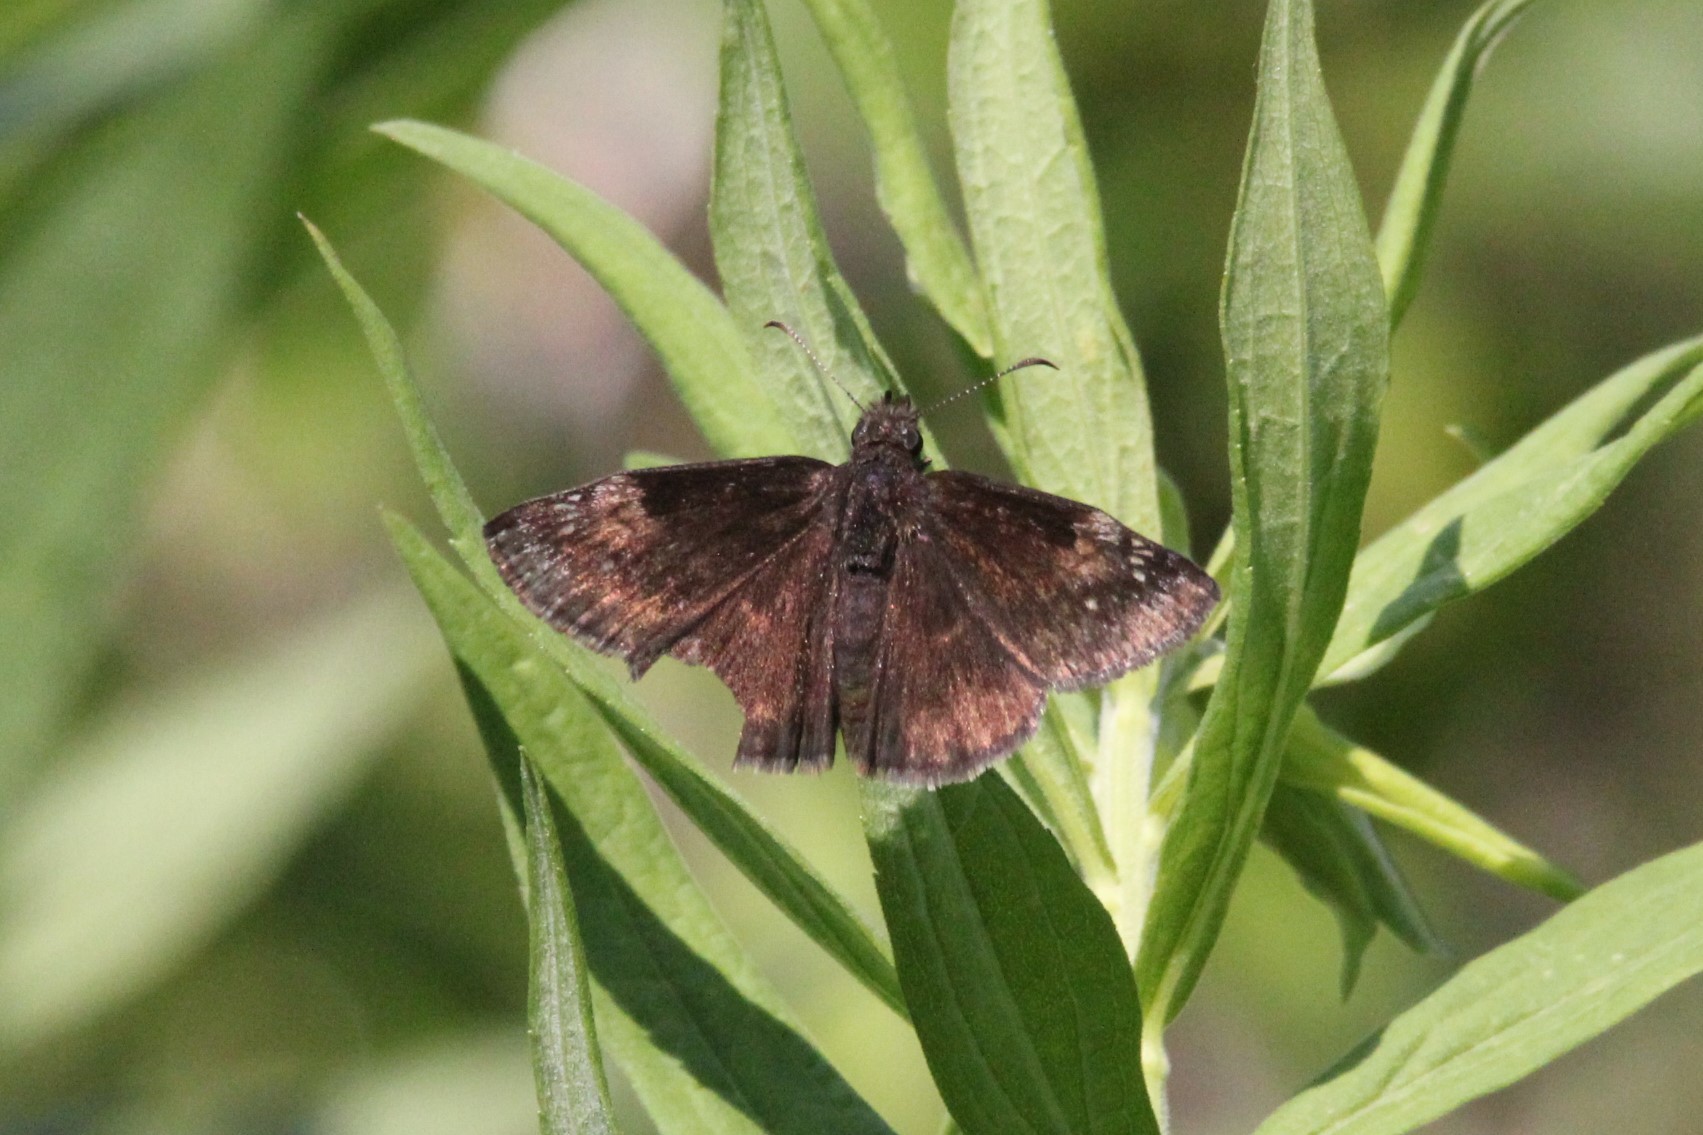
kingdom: Animalia
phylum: Arthropoda
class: Insecta
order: Lepidoptera
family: Hesperiidae
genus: Erynnis
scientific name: Erynnis baptisiae
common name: Wild indigo duskywing
